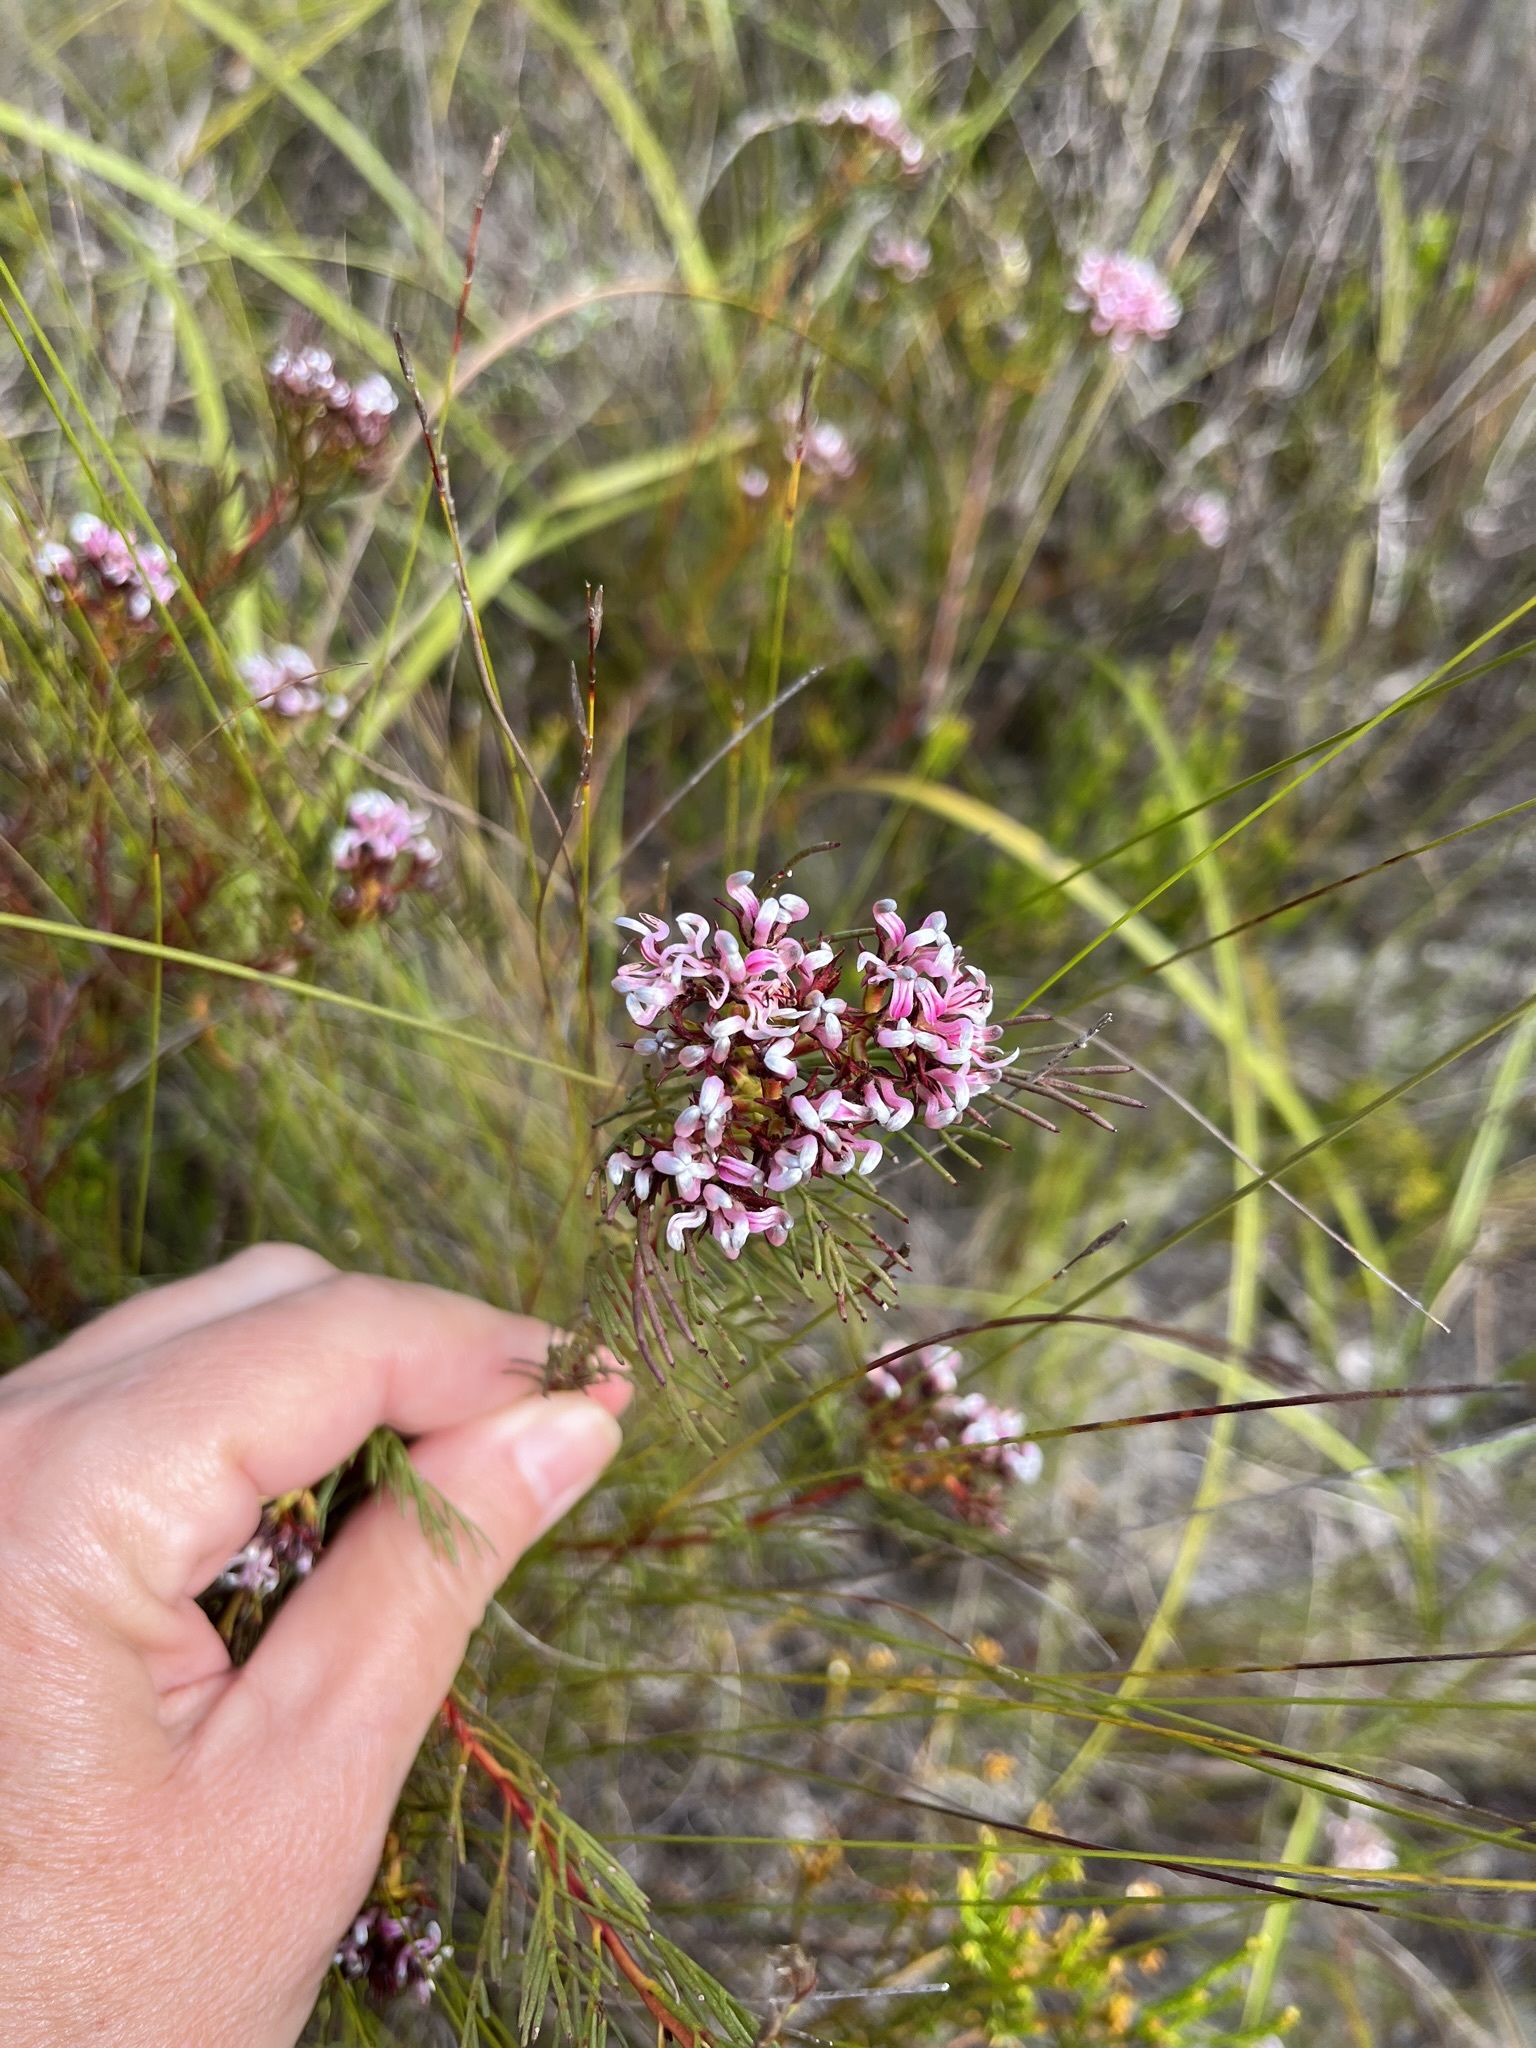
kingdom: Plantae
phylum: Tracheophyta
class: Magnoliopsida
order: Proteales
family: Proteaceae
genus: Serruria
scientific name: Serruria bolusii
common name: Agulhas spiderhead
